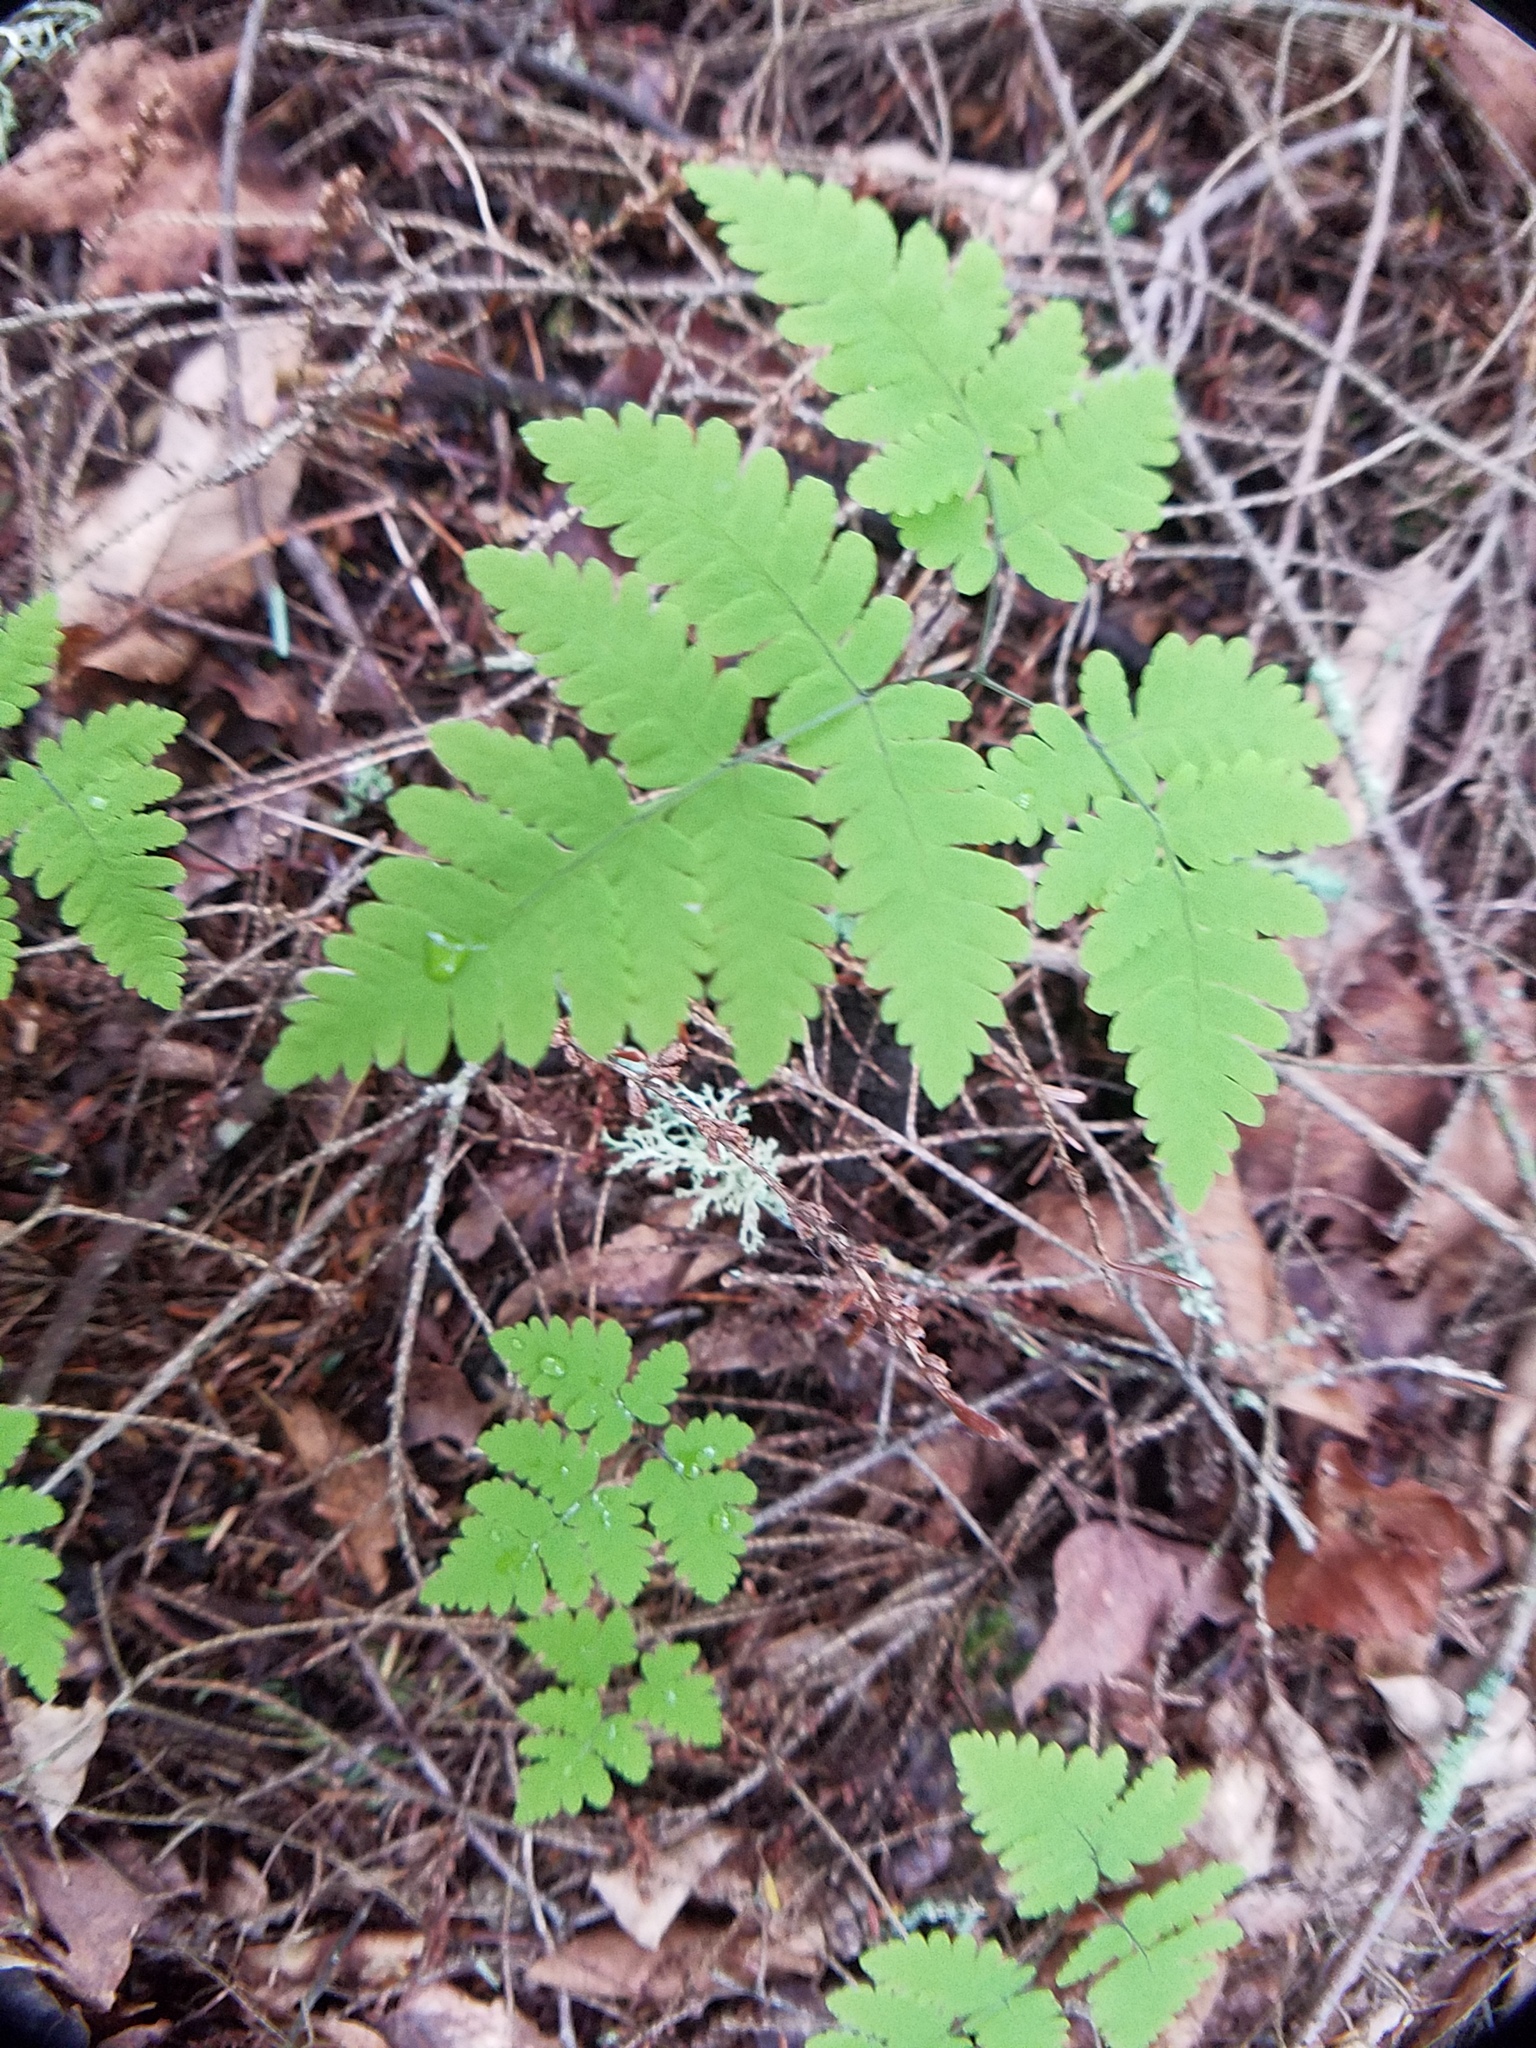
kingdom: Plantae
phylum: Tracheophyta
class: Polypodiopsida
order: Polypodiales
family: Cystopteridaceae
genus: Gymnocarpium
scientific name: Gymnocarpium dryopteris
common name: Oak fern
